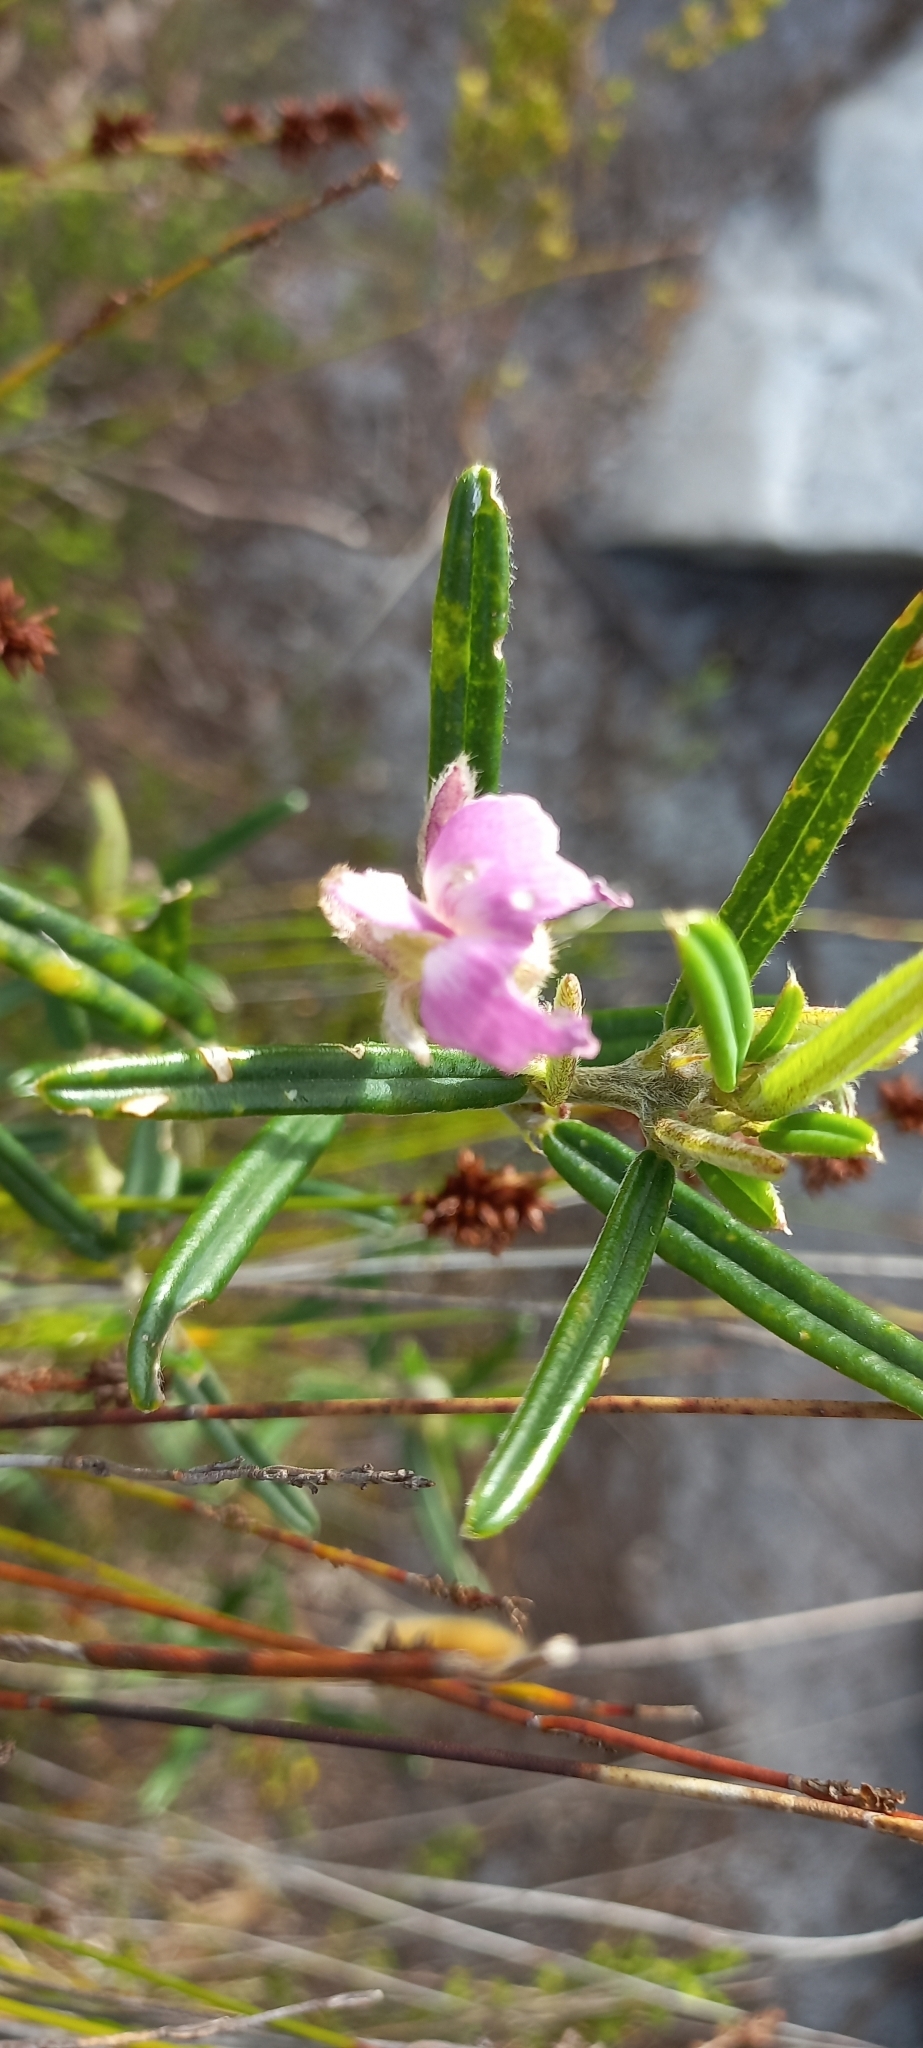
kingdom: Plantae
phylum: Tracheophyta
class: Magnoliopsida
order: Fabales
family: Fabaceae
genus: Podalyria
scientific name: Podalyria oleifolia
